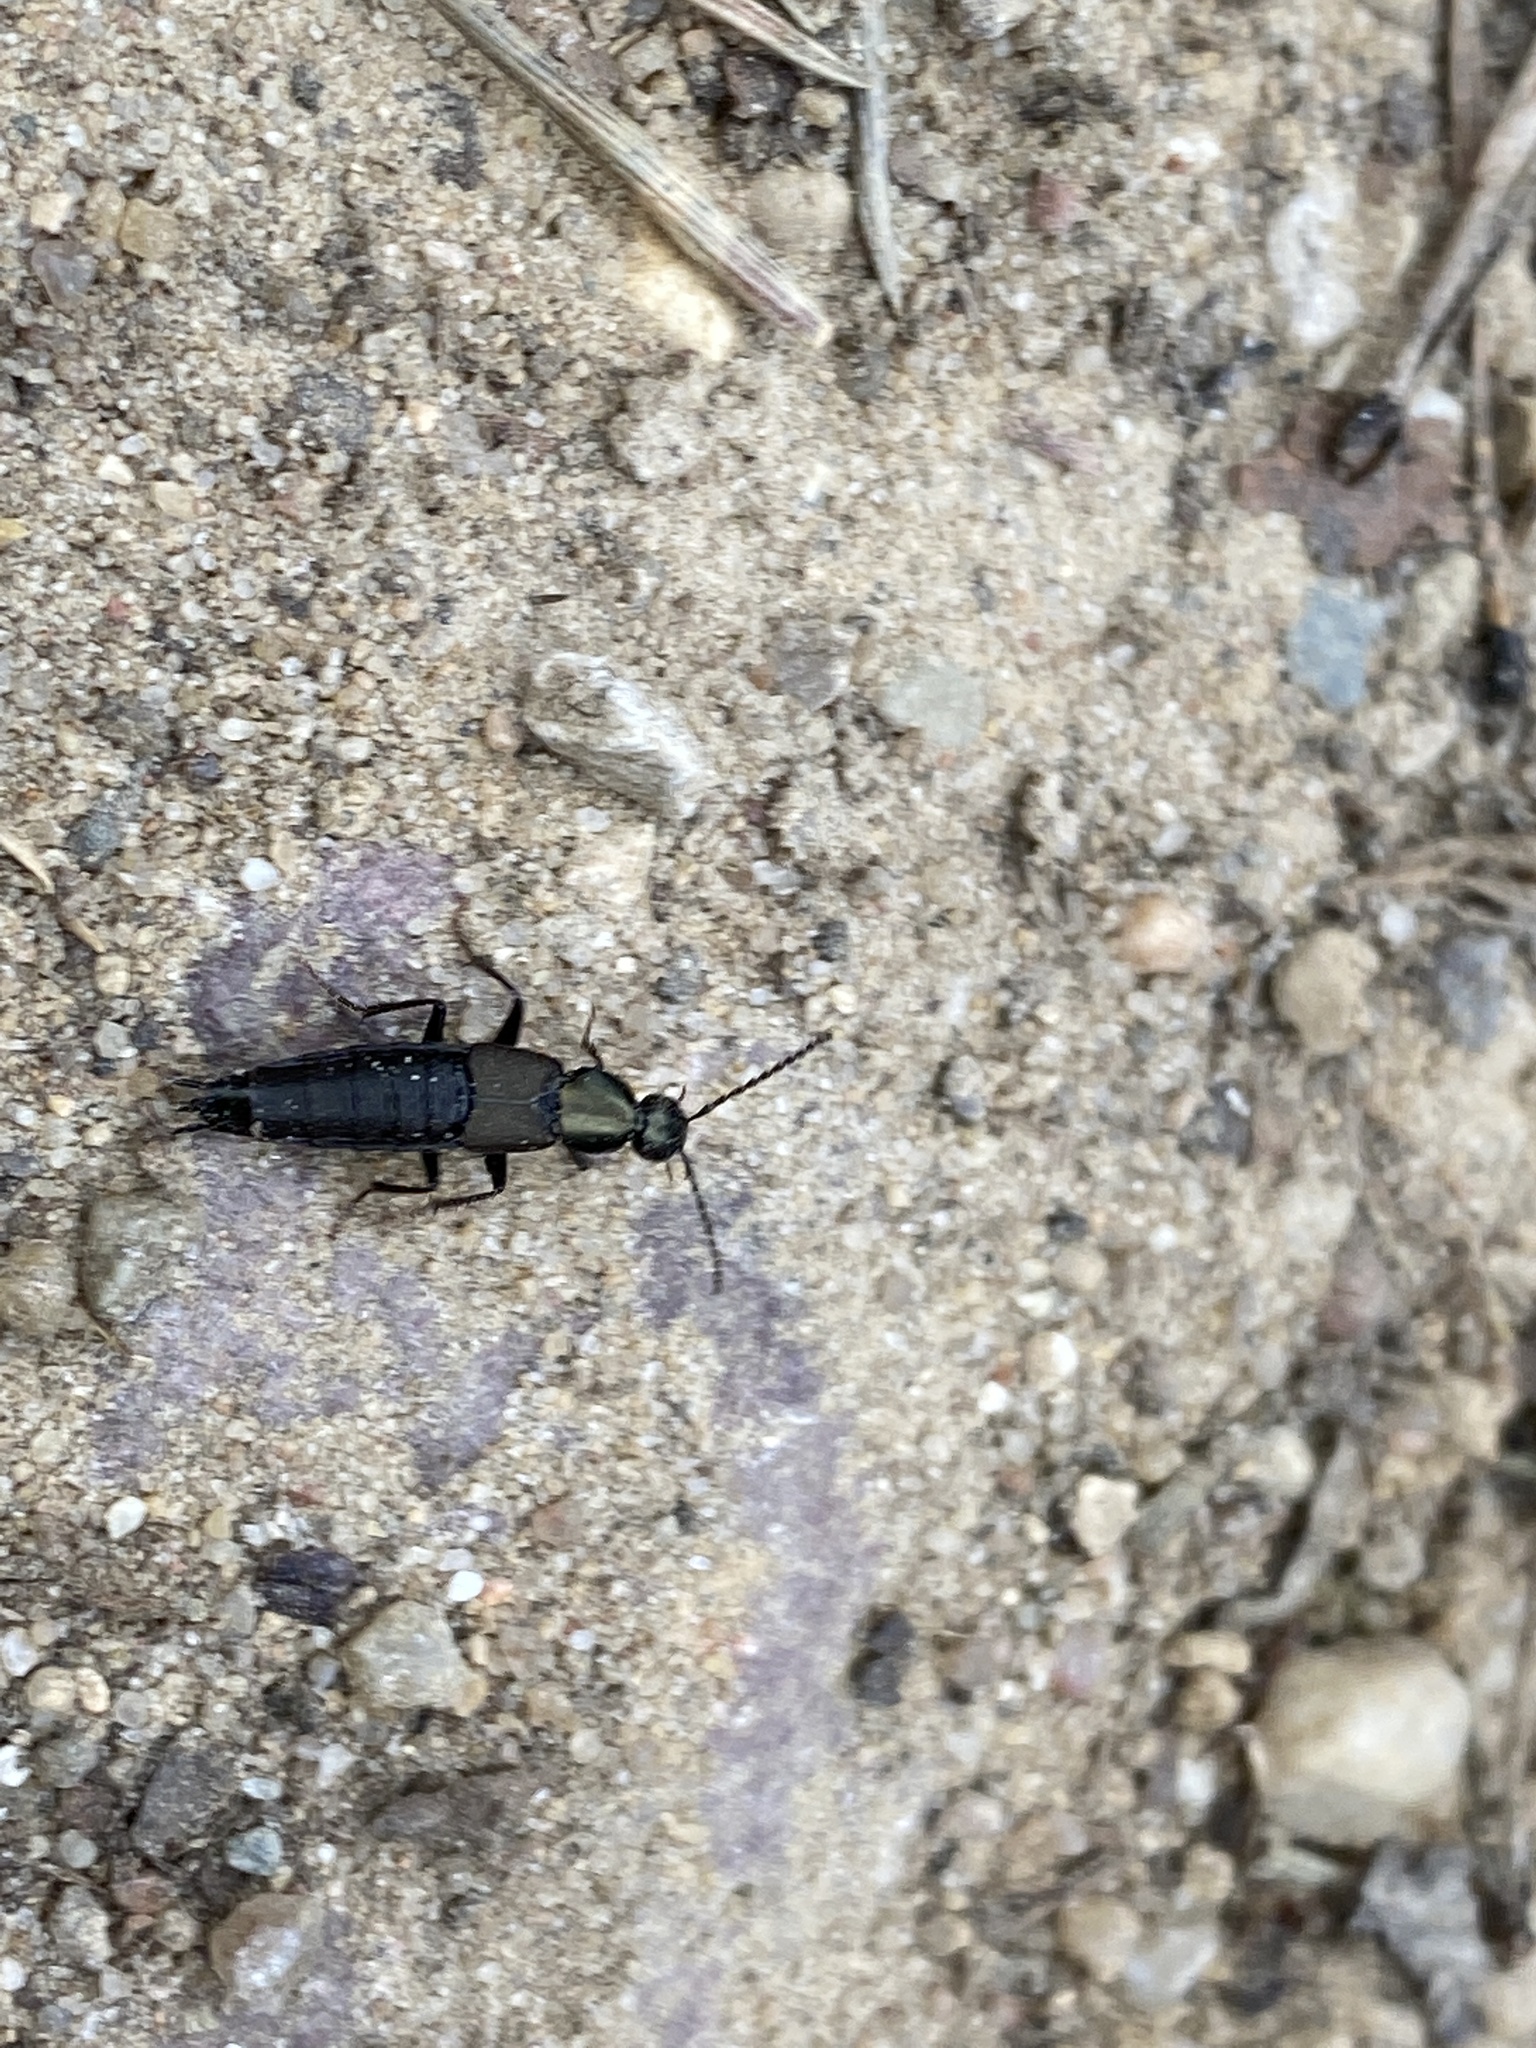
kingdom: Animalia
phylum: Arthropoda
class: Insecta
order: Coleoptera
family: Staphylinidae
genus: Philonthus
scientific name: Philonthus decorus
